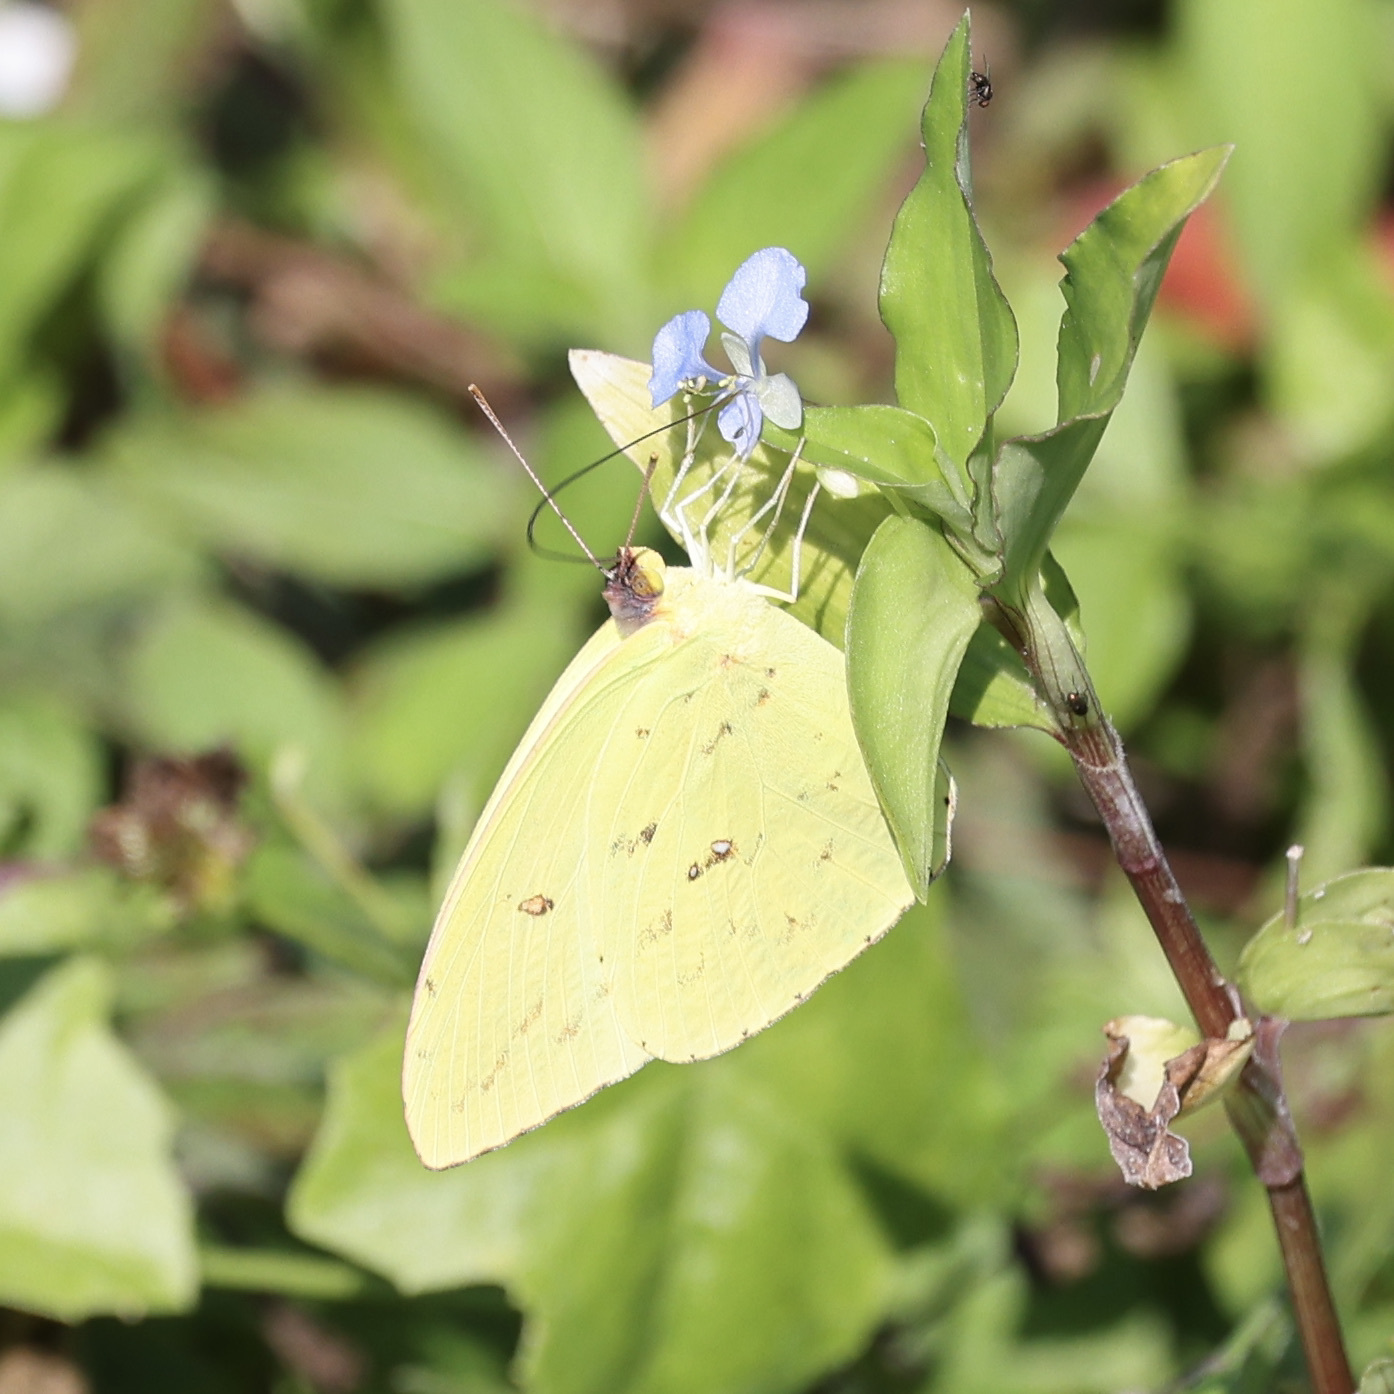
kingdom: Animalia
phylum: Arthropoda
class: Insecta
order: Lepidoptera
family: Pieridae
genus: Phoebis
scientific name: Phoebis sennae
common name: Cloudless sulphur
